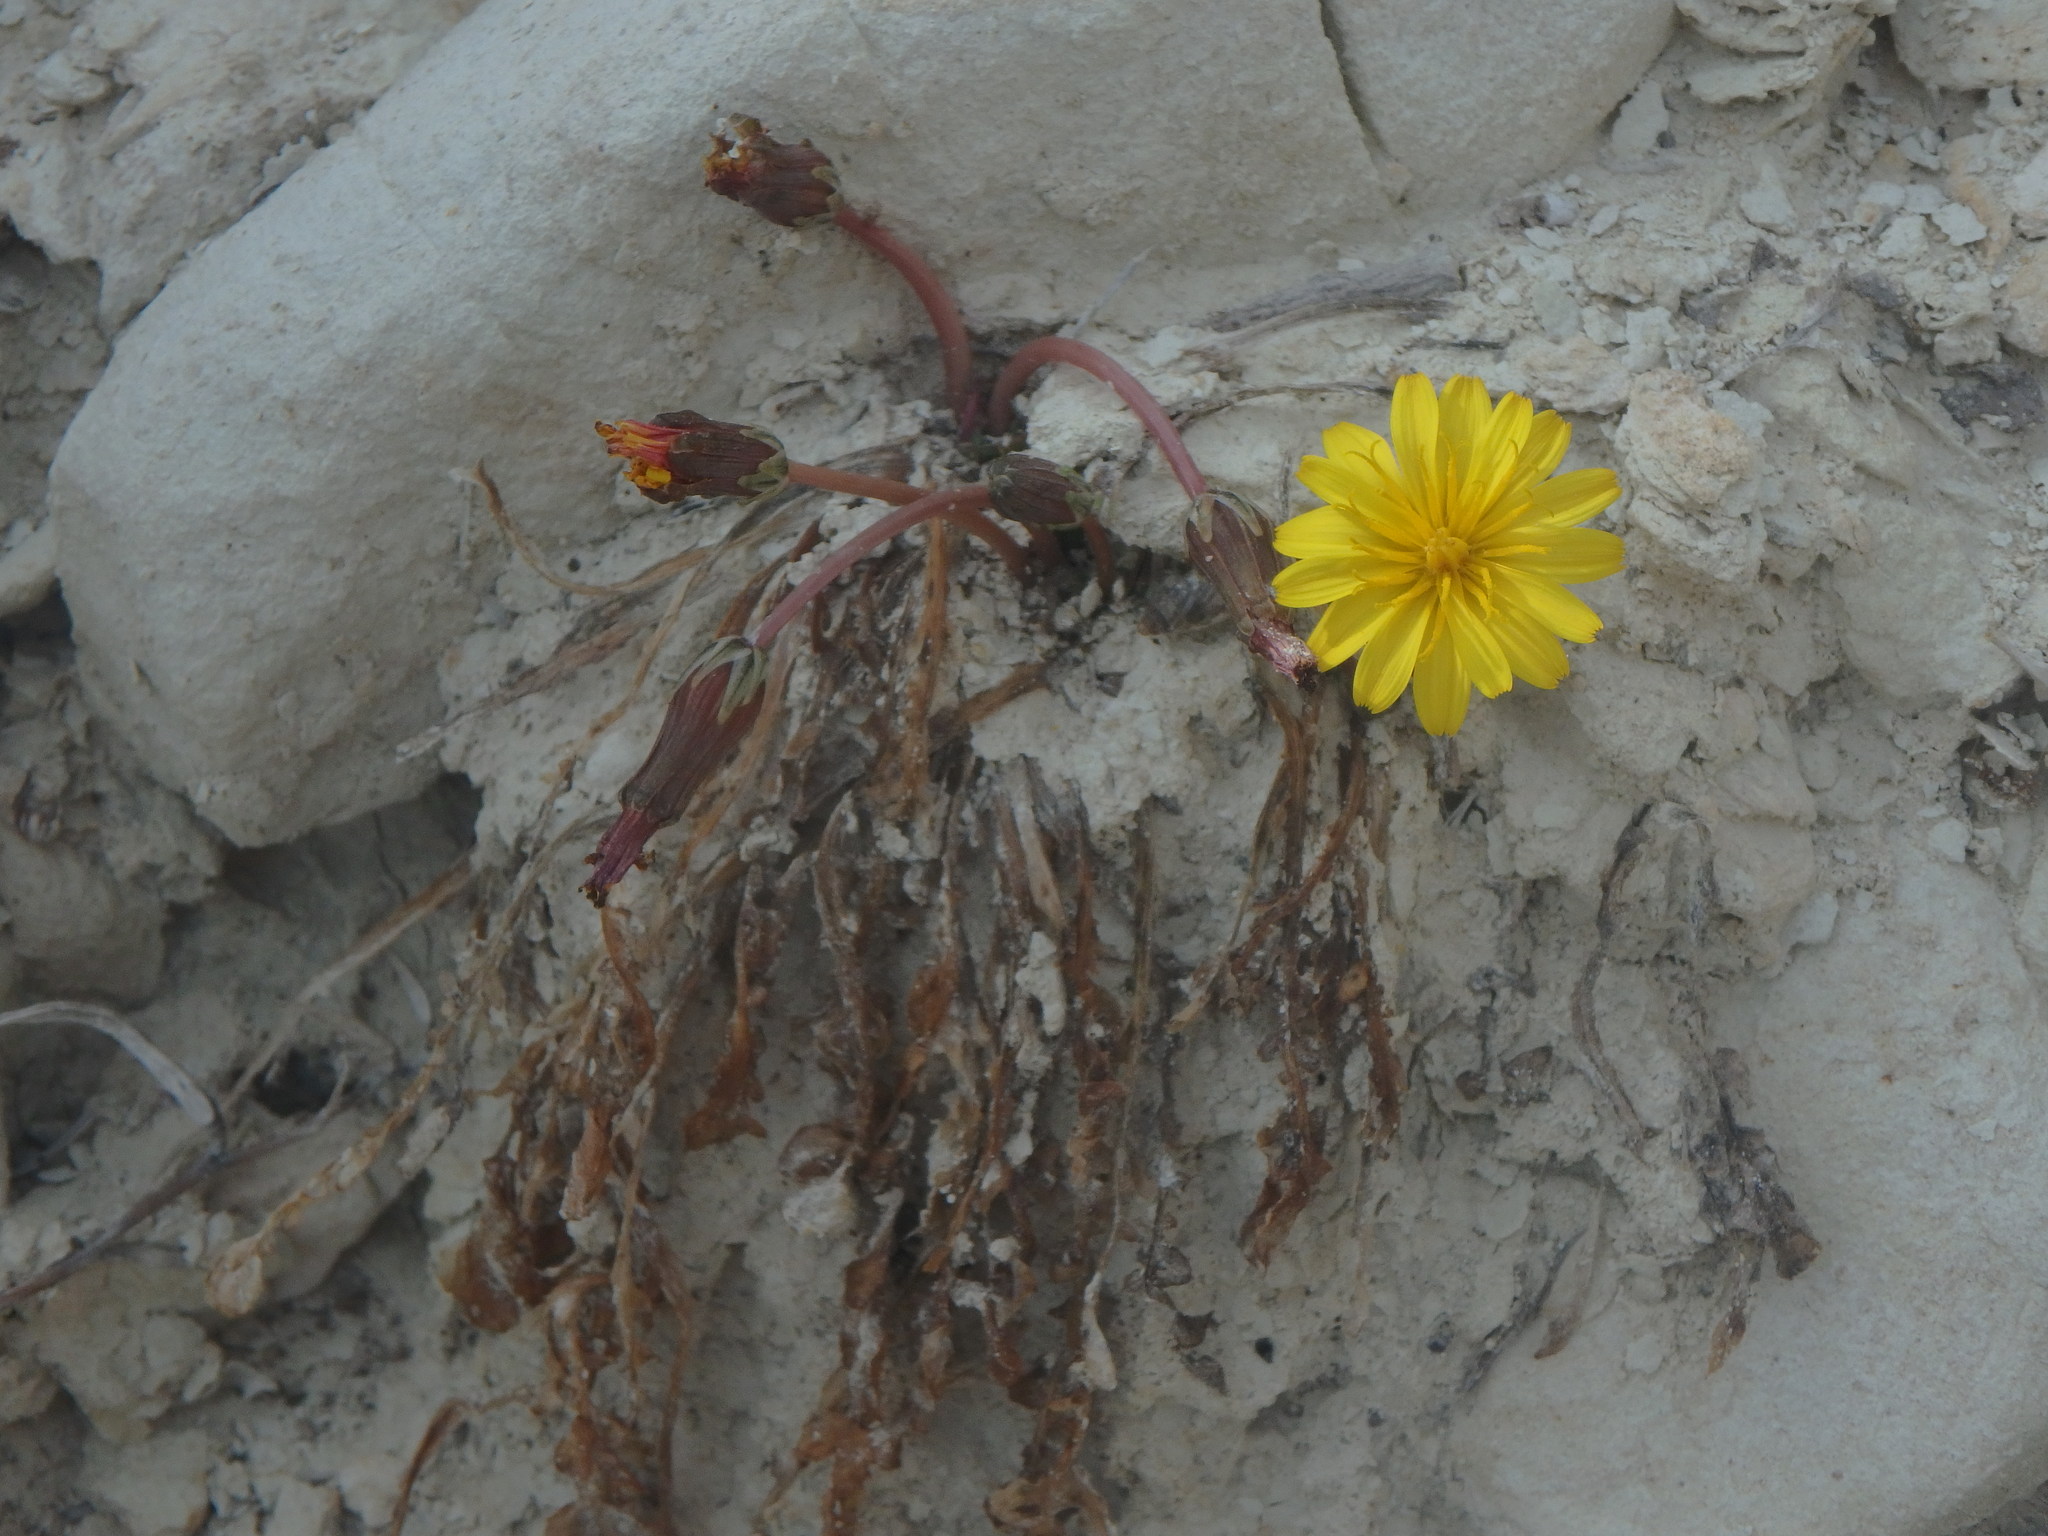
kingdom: Plantae
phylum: Tracheophyta
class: Magnoliopsida
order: Asterales
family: Asteraceae
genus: Taraxacum
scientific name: Taraxacum aphrogenes
